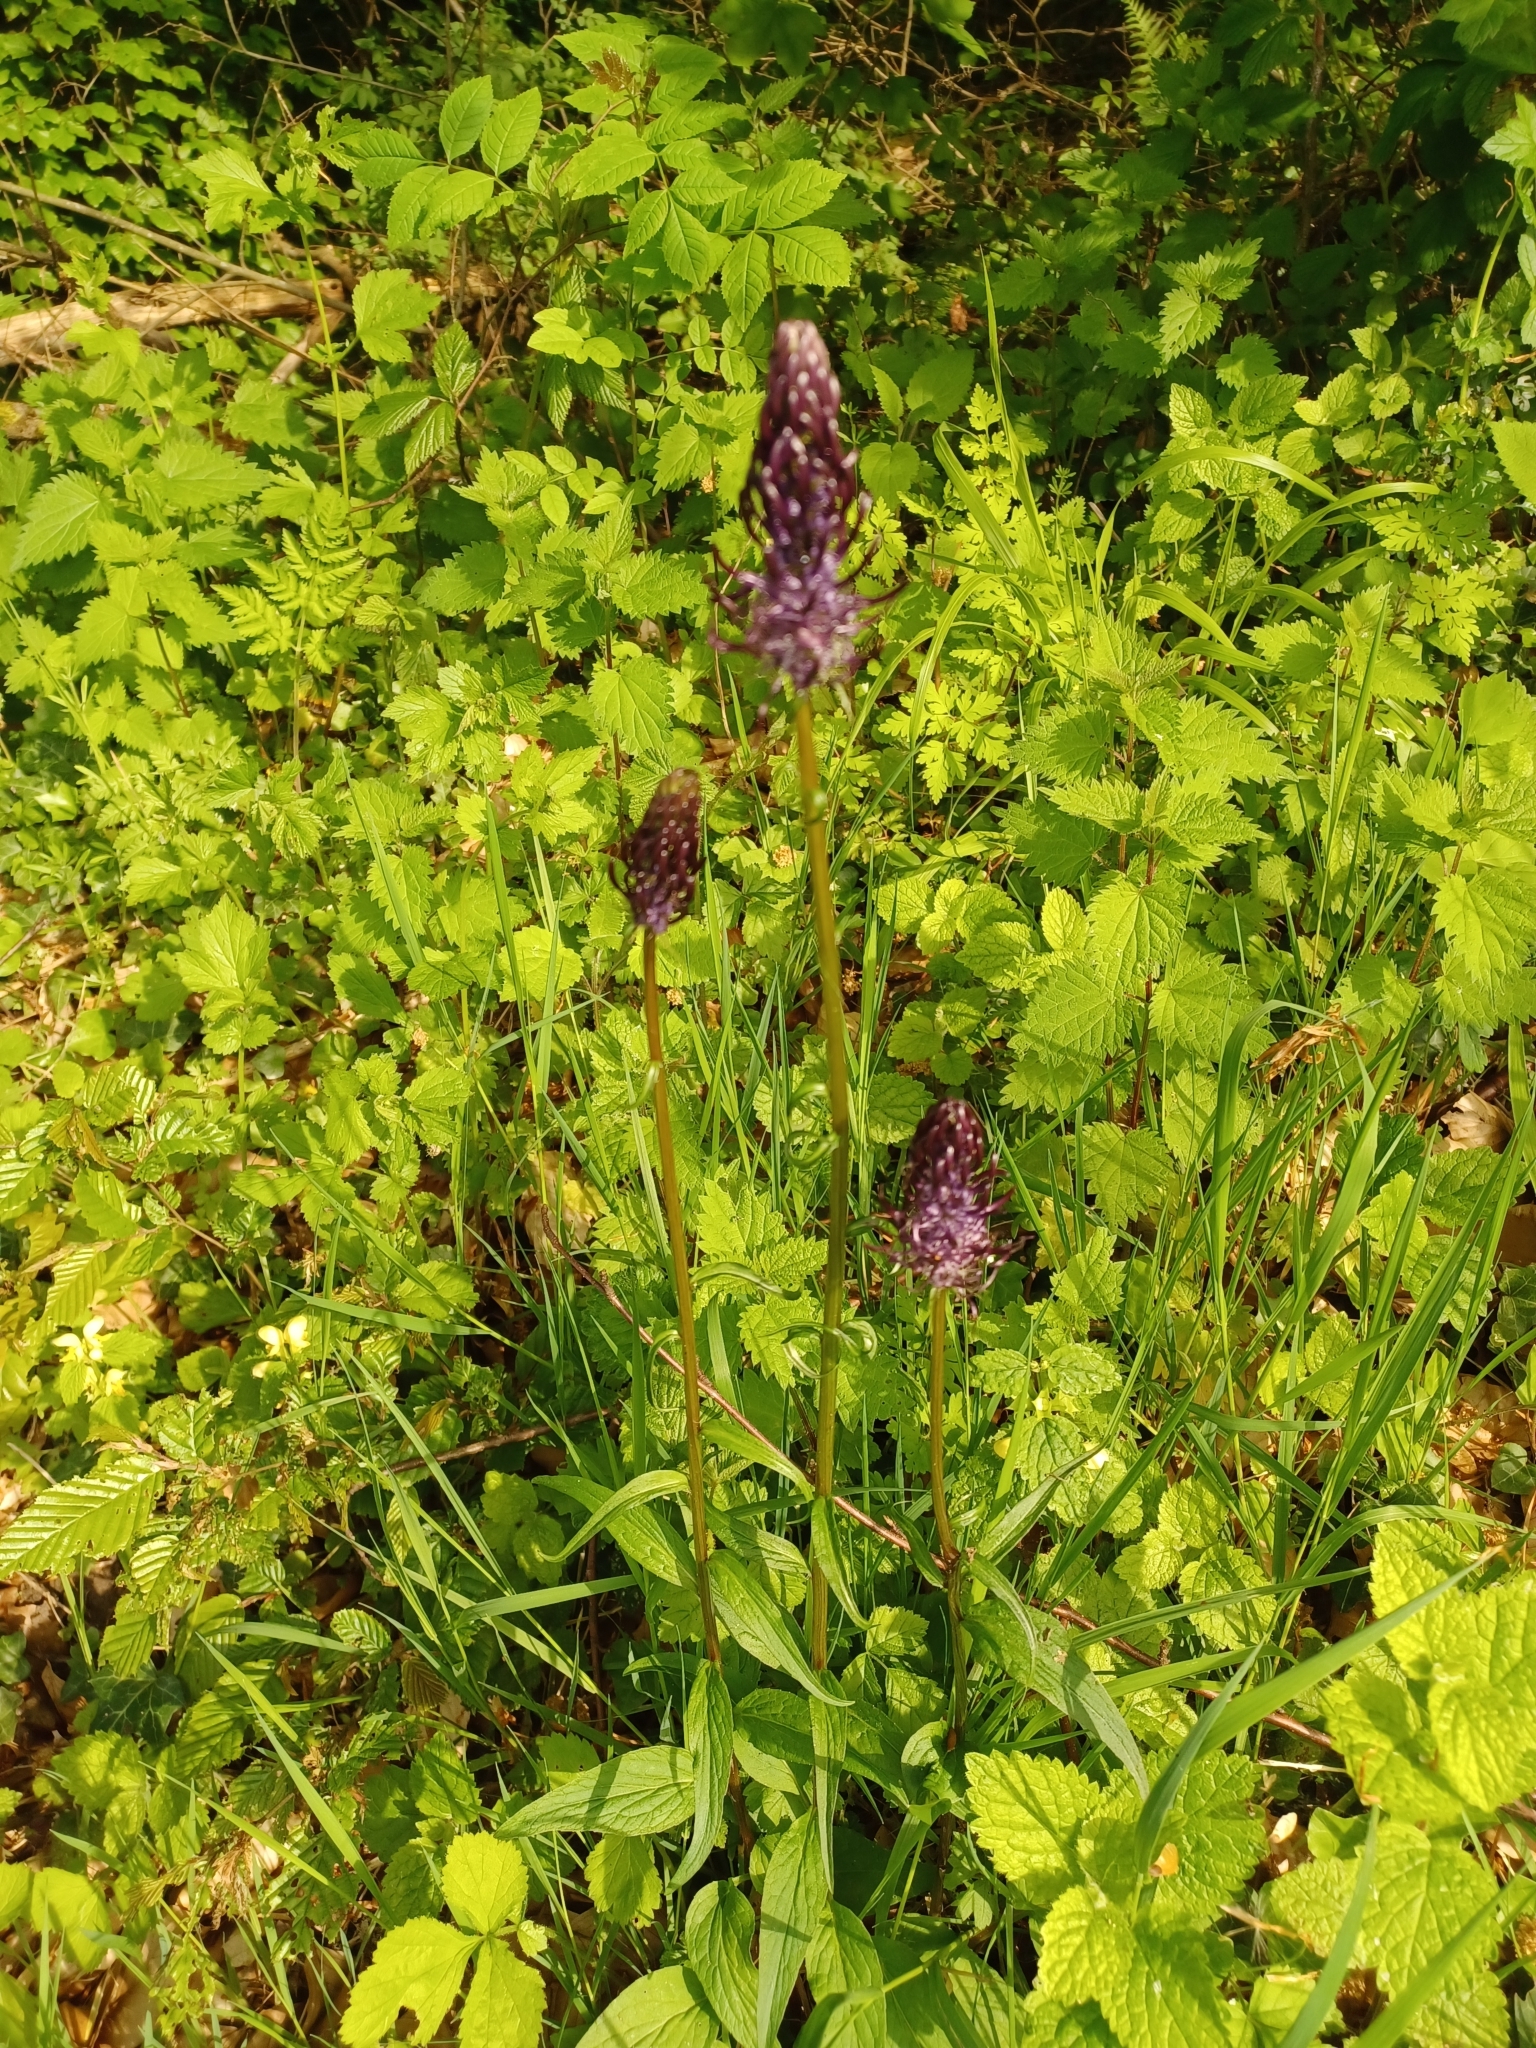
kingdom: Plantae
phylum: Tracheophyta
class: Magnoliopsida
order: Asterales
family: Campanulaceae
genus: Phyteuma
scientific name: Phyteuma nigrum
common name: Black rampion
